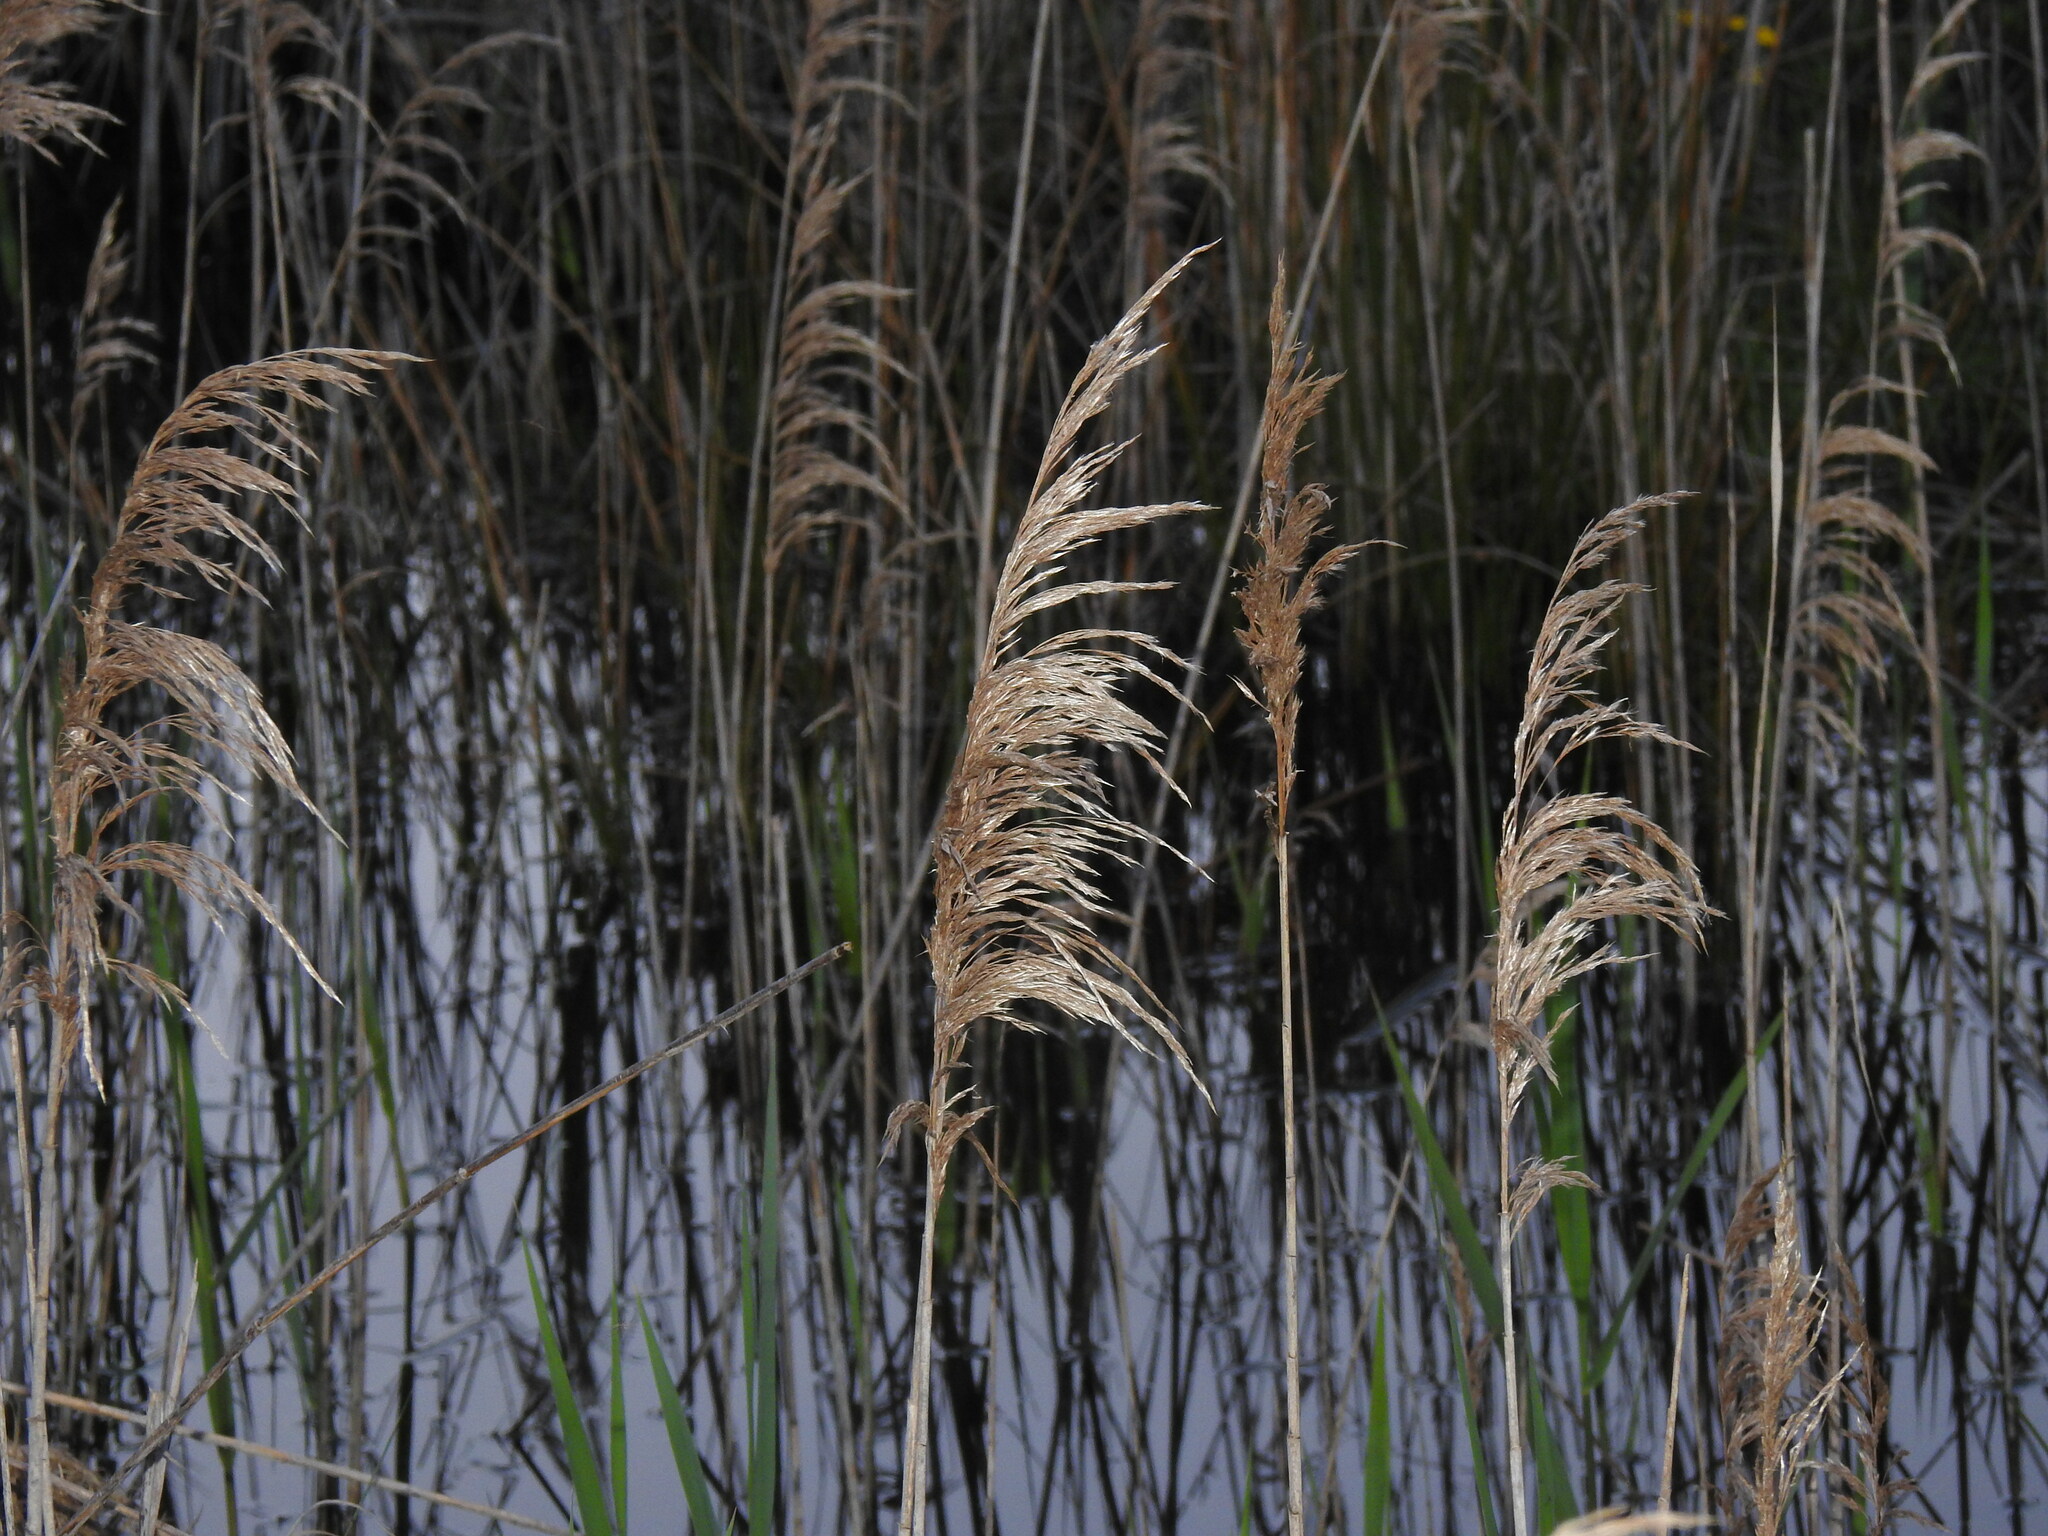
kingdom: Plantae
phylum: Tracheophyta
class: Liliopsida
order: Poales
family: Poaceae
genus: Phragmites
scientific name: Phragmites australis
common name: Common reed
